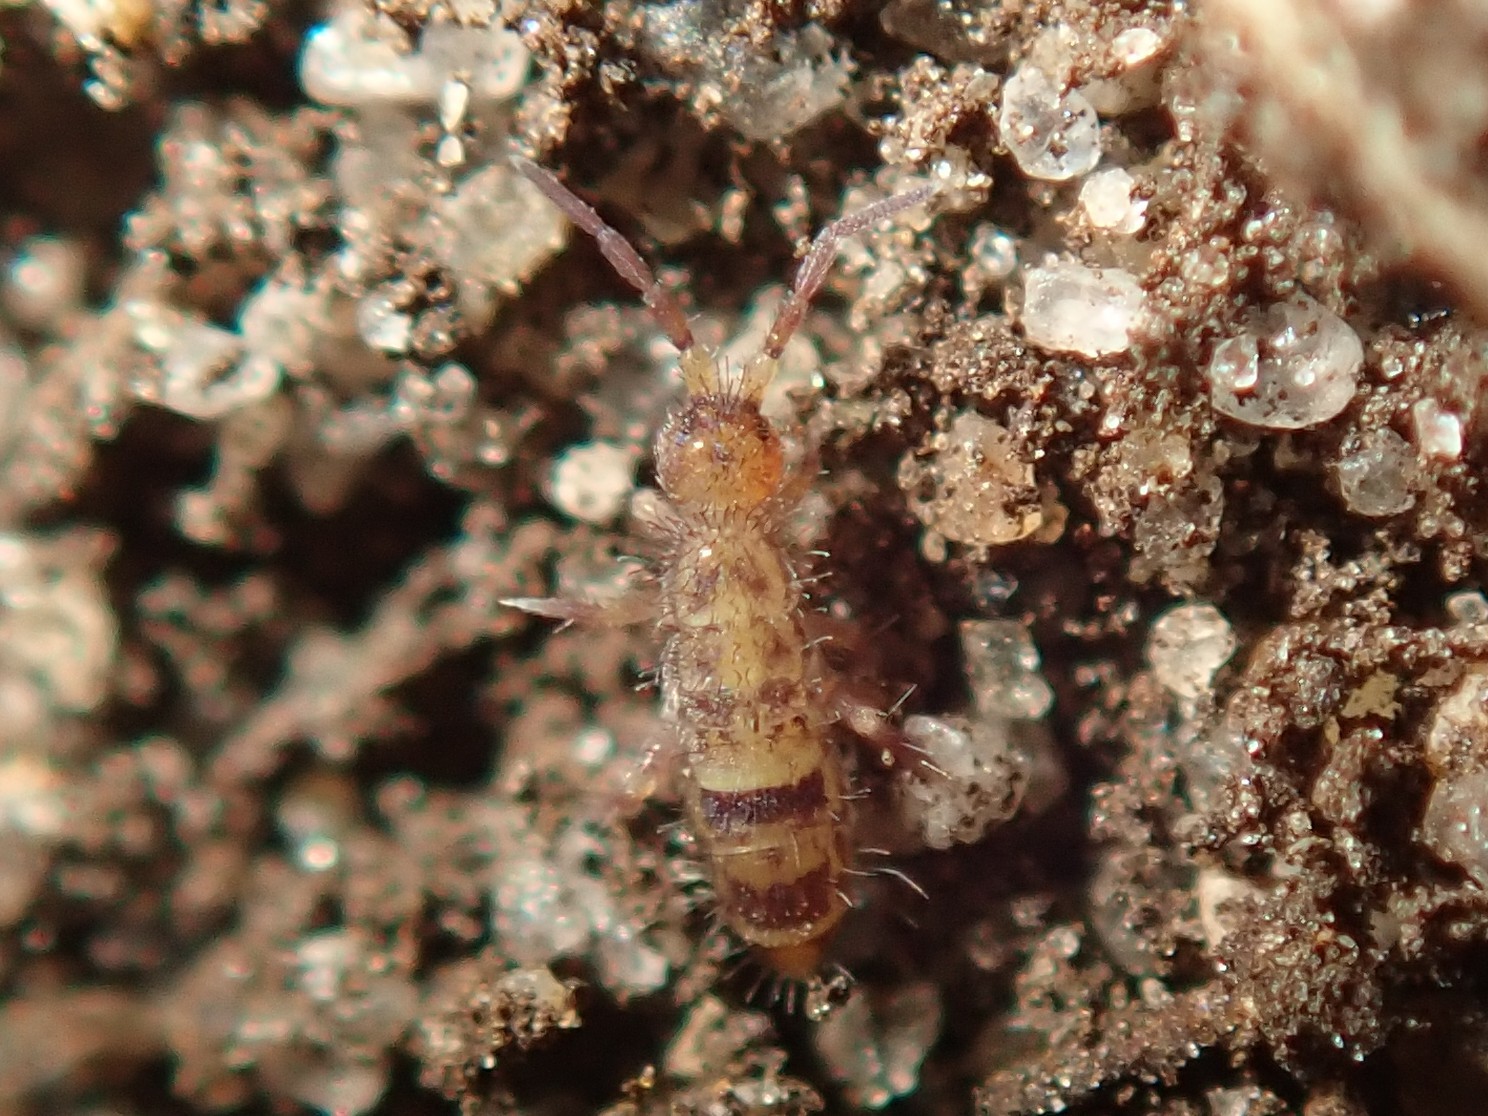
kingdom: Animalia
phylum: Arthropoda
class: Collembola
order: Entomobryomorpha
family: Orchesellidae
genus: Orchesella
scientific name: Orchesella cincta
